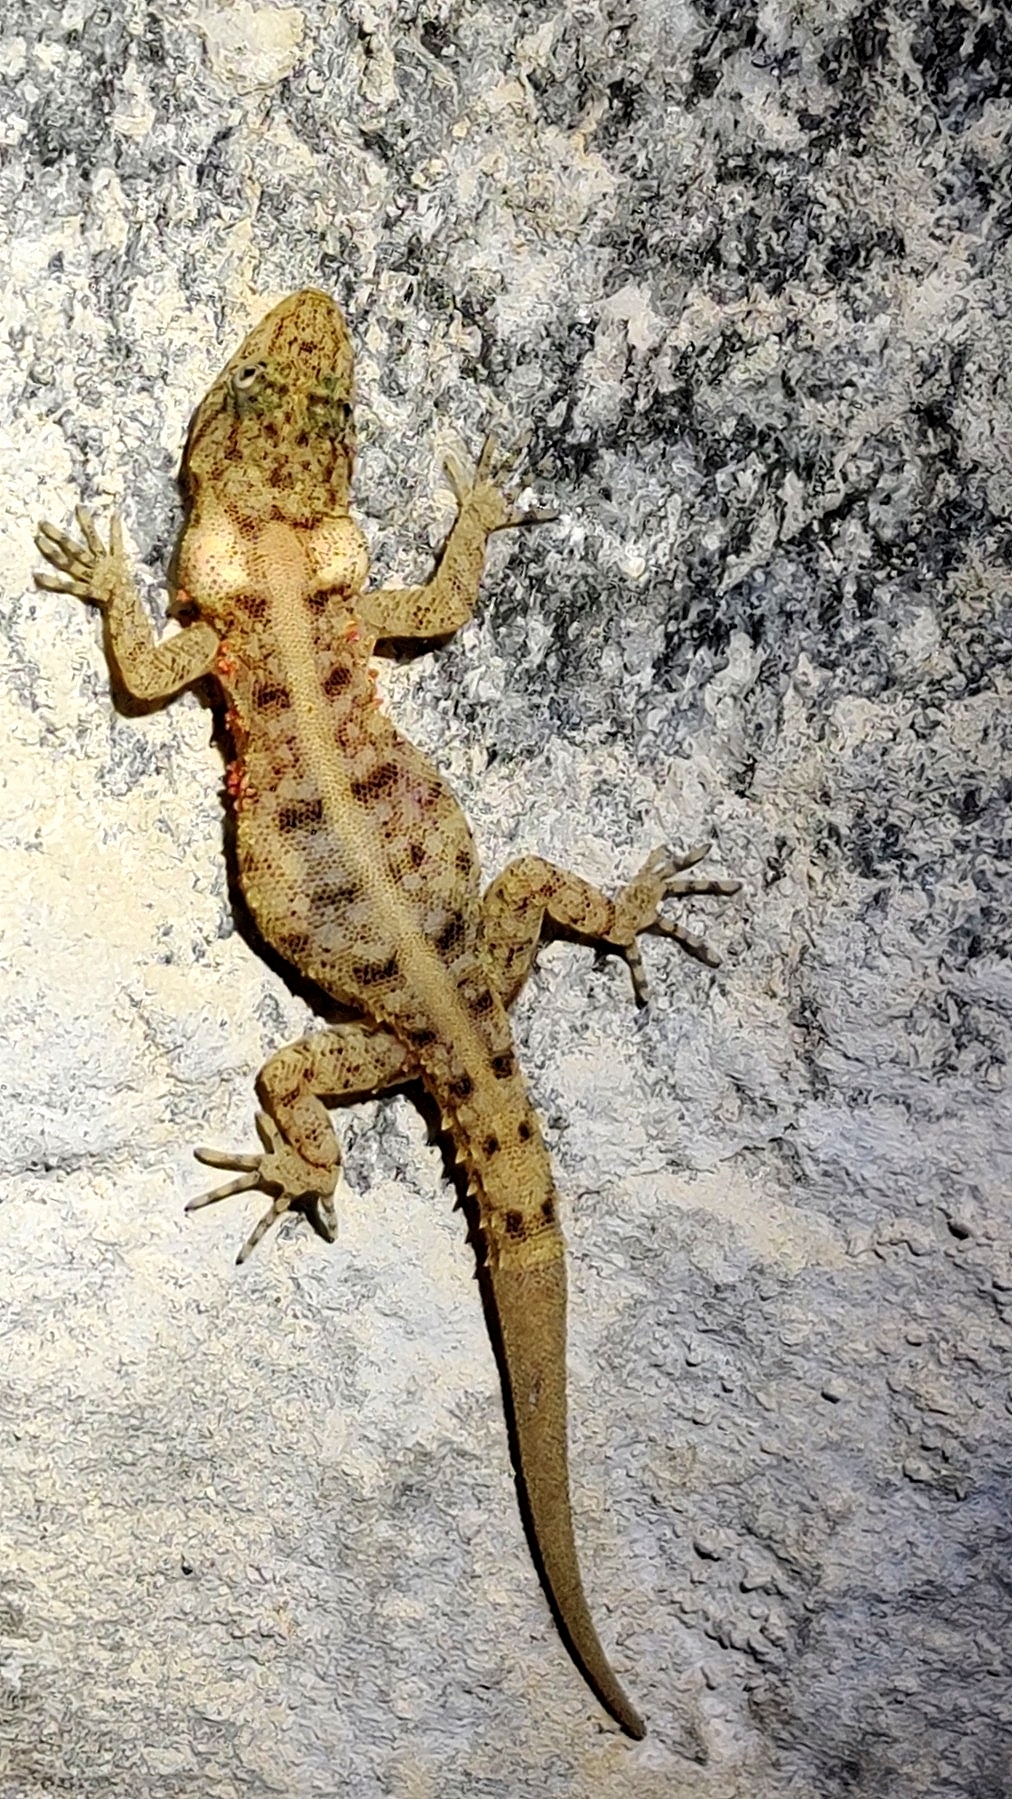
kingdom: Animalia
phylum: Chordata
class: Squamata
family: Gekkonidae
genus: Cnemaspis
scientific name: Cnemaspis mysoriensis
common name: Mysore day gecko
